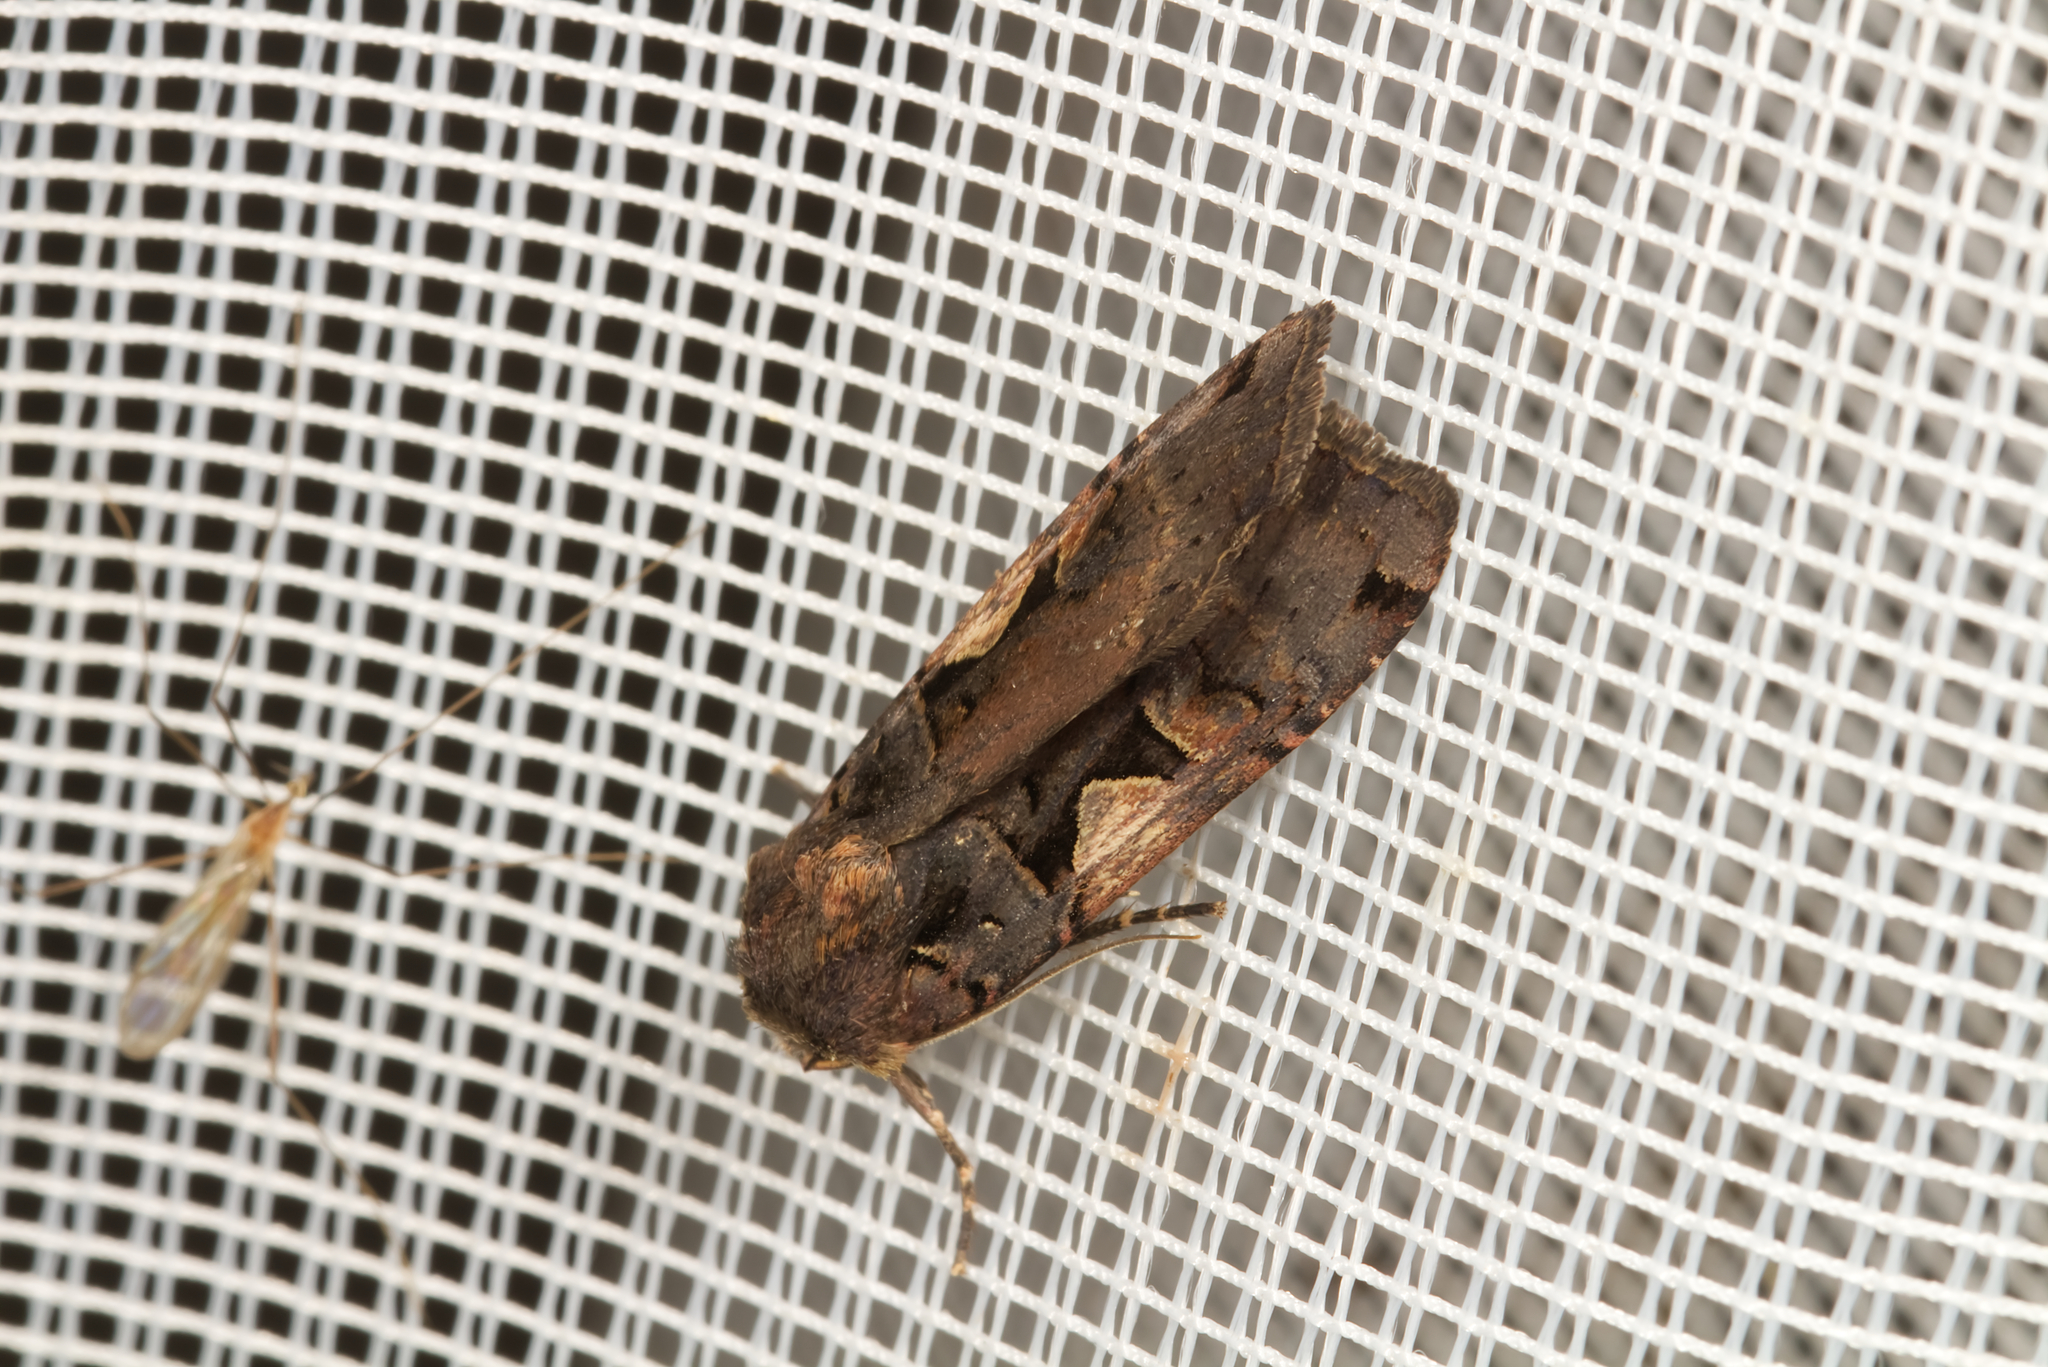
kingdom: Animalia
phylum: Arthropoda
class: Insecta
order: Lepidoptera
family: Noctuidae
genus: Xestia
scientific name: Xestia c-nigrum
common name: Setaceous hebrew character
